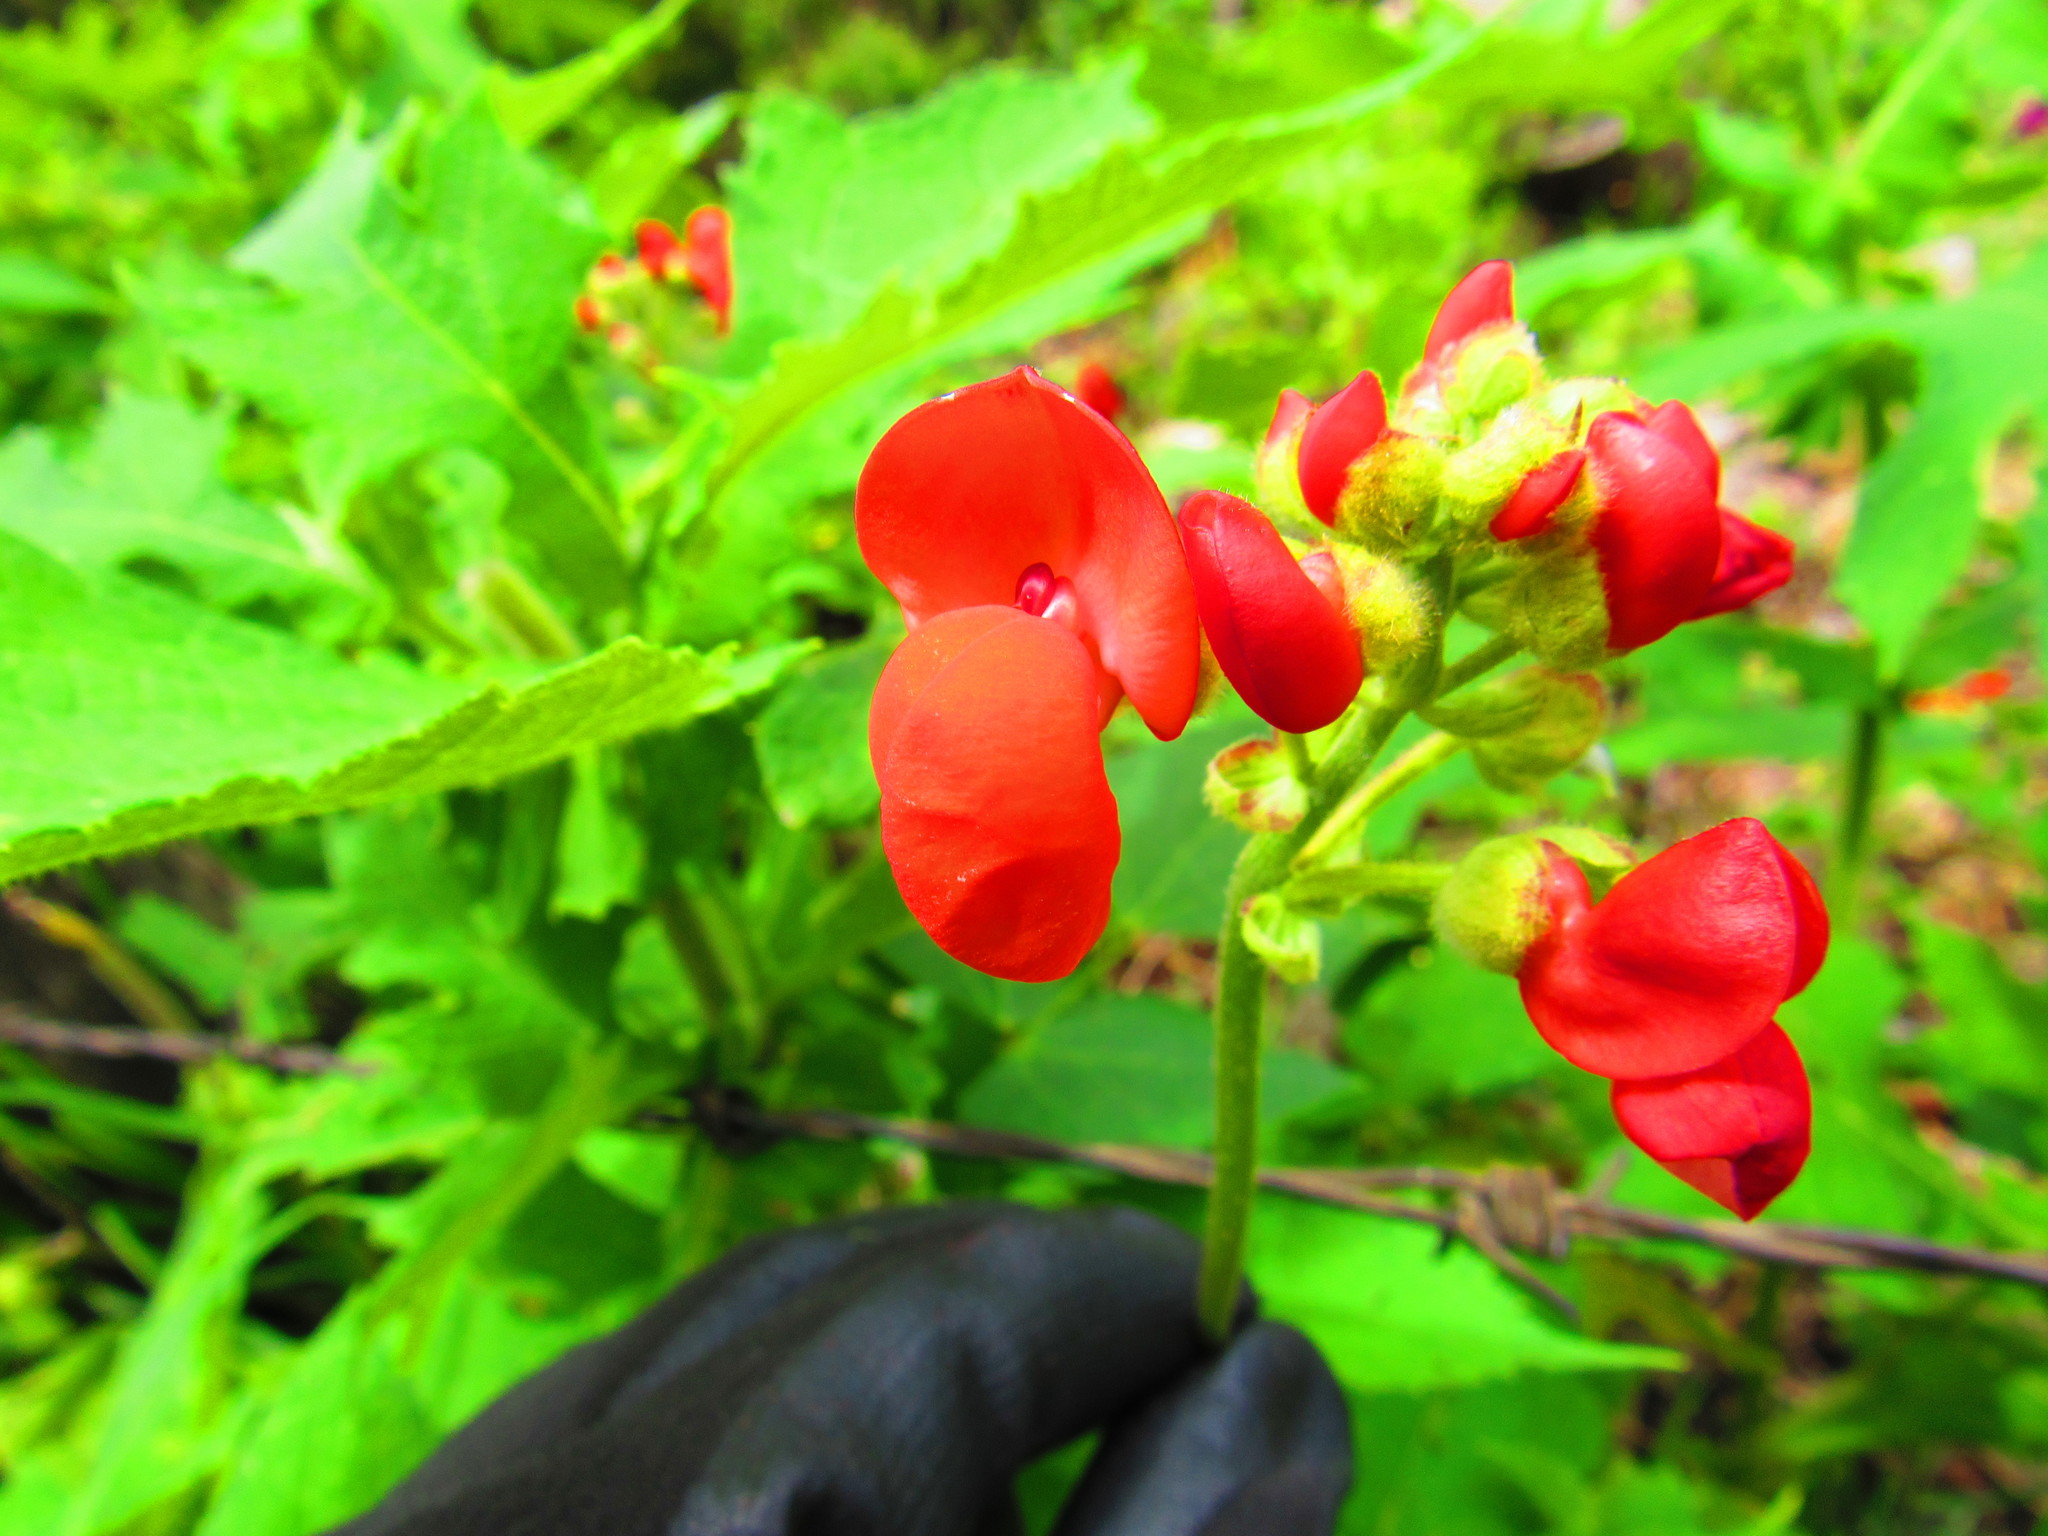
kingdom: Plantae
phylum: Tracheophyta
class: Magnoliopsida
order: Fabales
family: Fabaceae
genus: Phaseolus
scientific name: Phaseolus coccineus
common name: Runner bean
